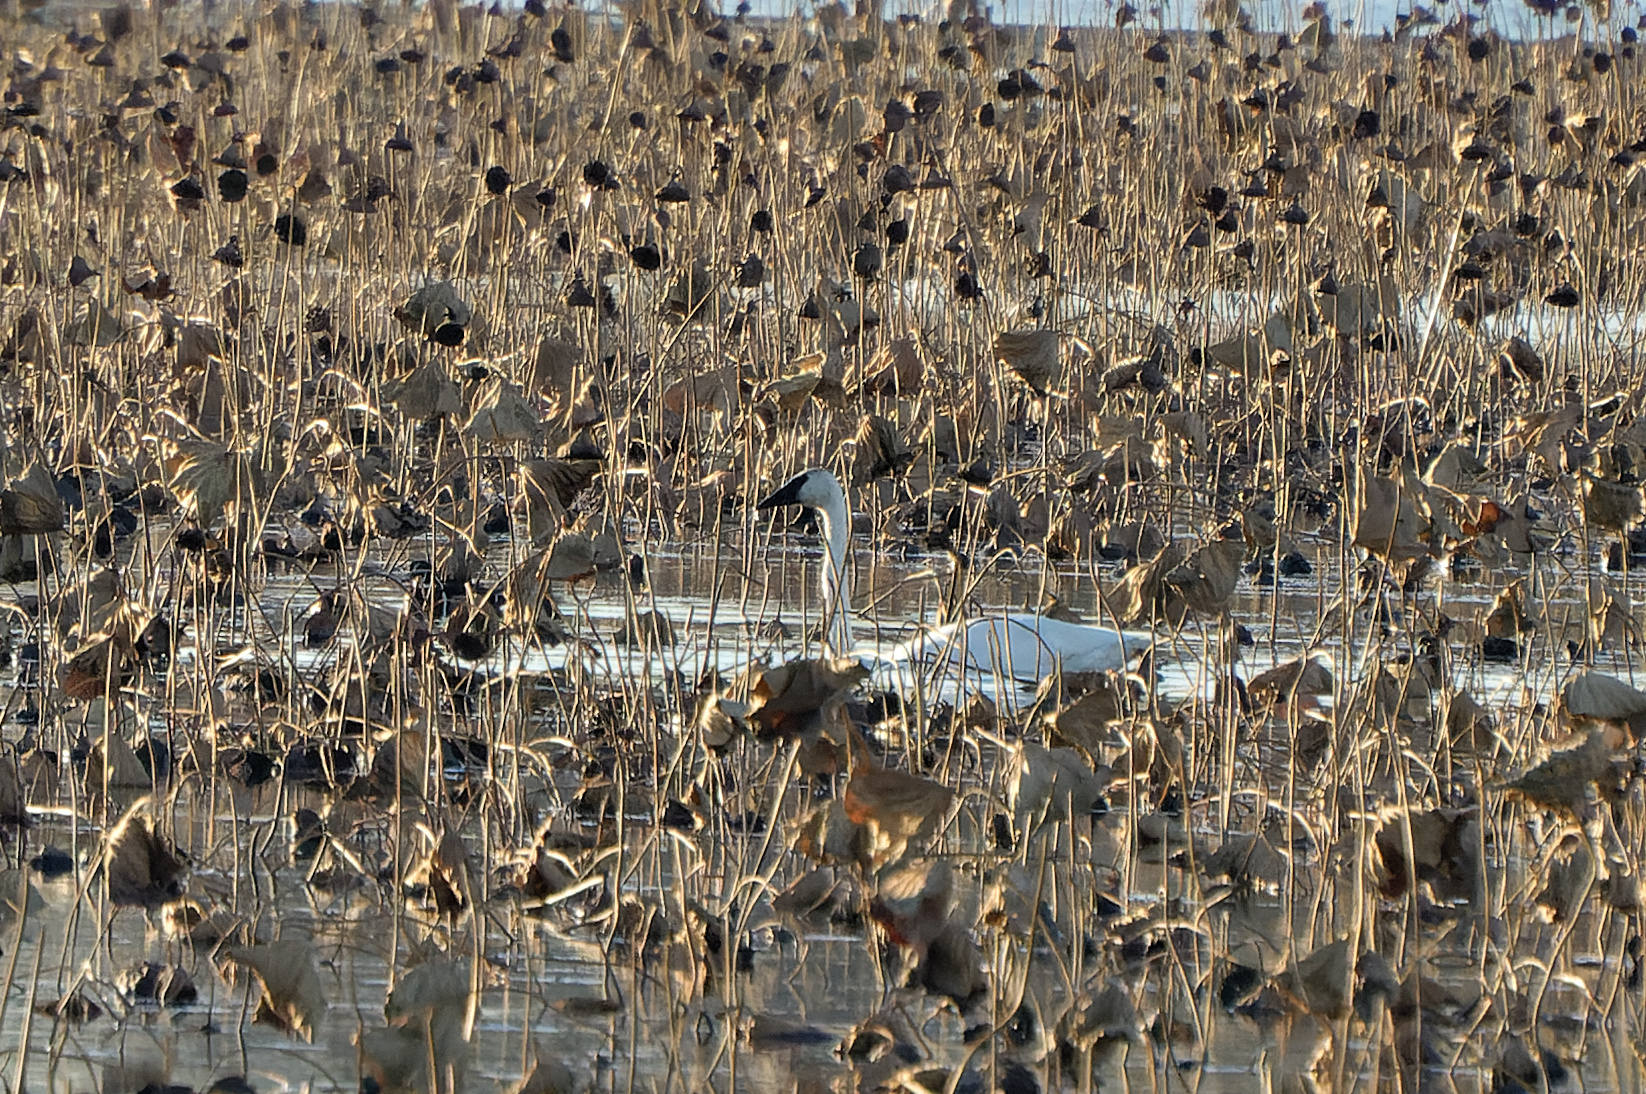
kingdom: Animalia
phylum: Chordata
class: Aves
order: Anseriformes
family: Anatidae
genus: Cygnus
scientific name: Cygnus buccinator
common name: Trumpeter swan
